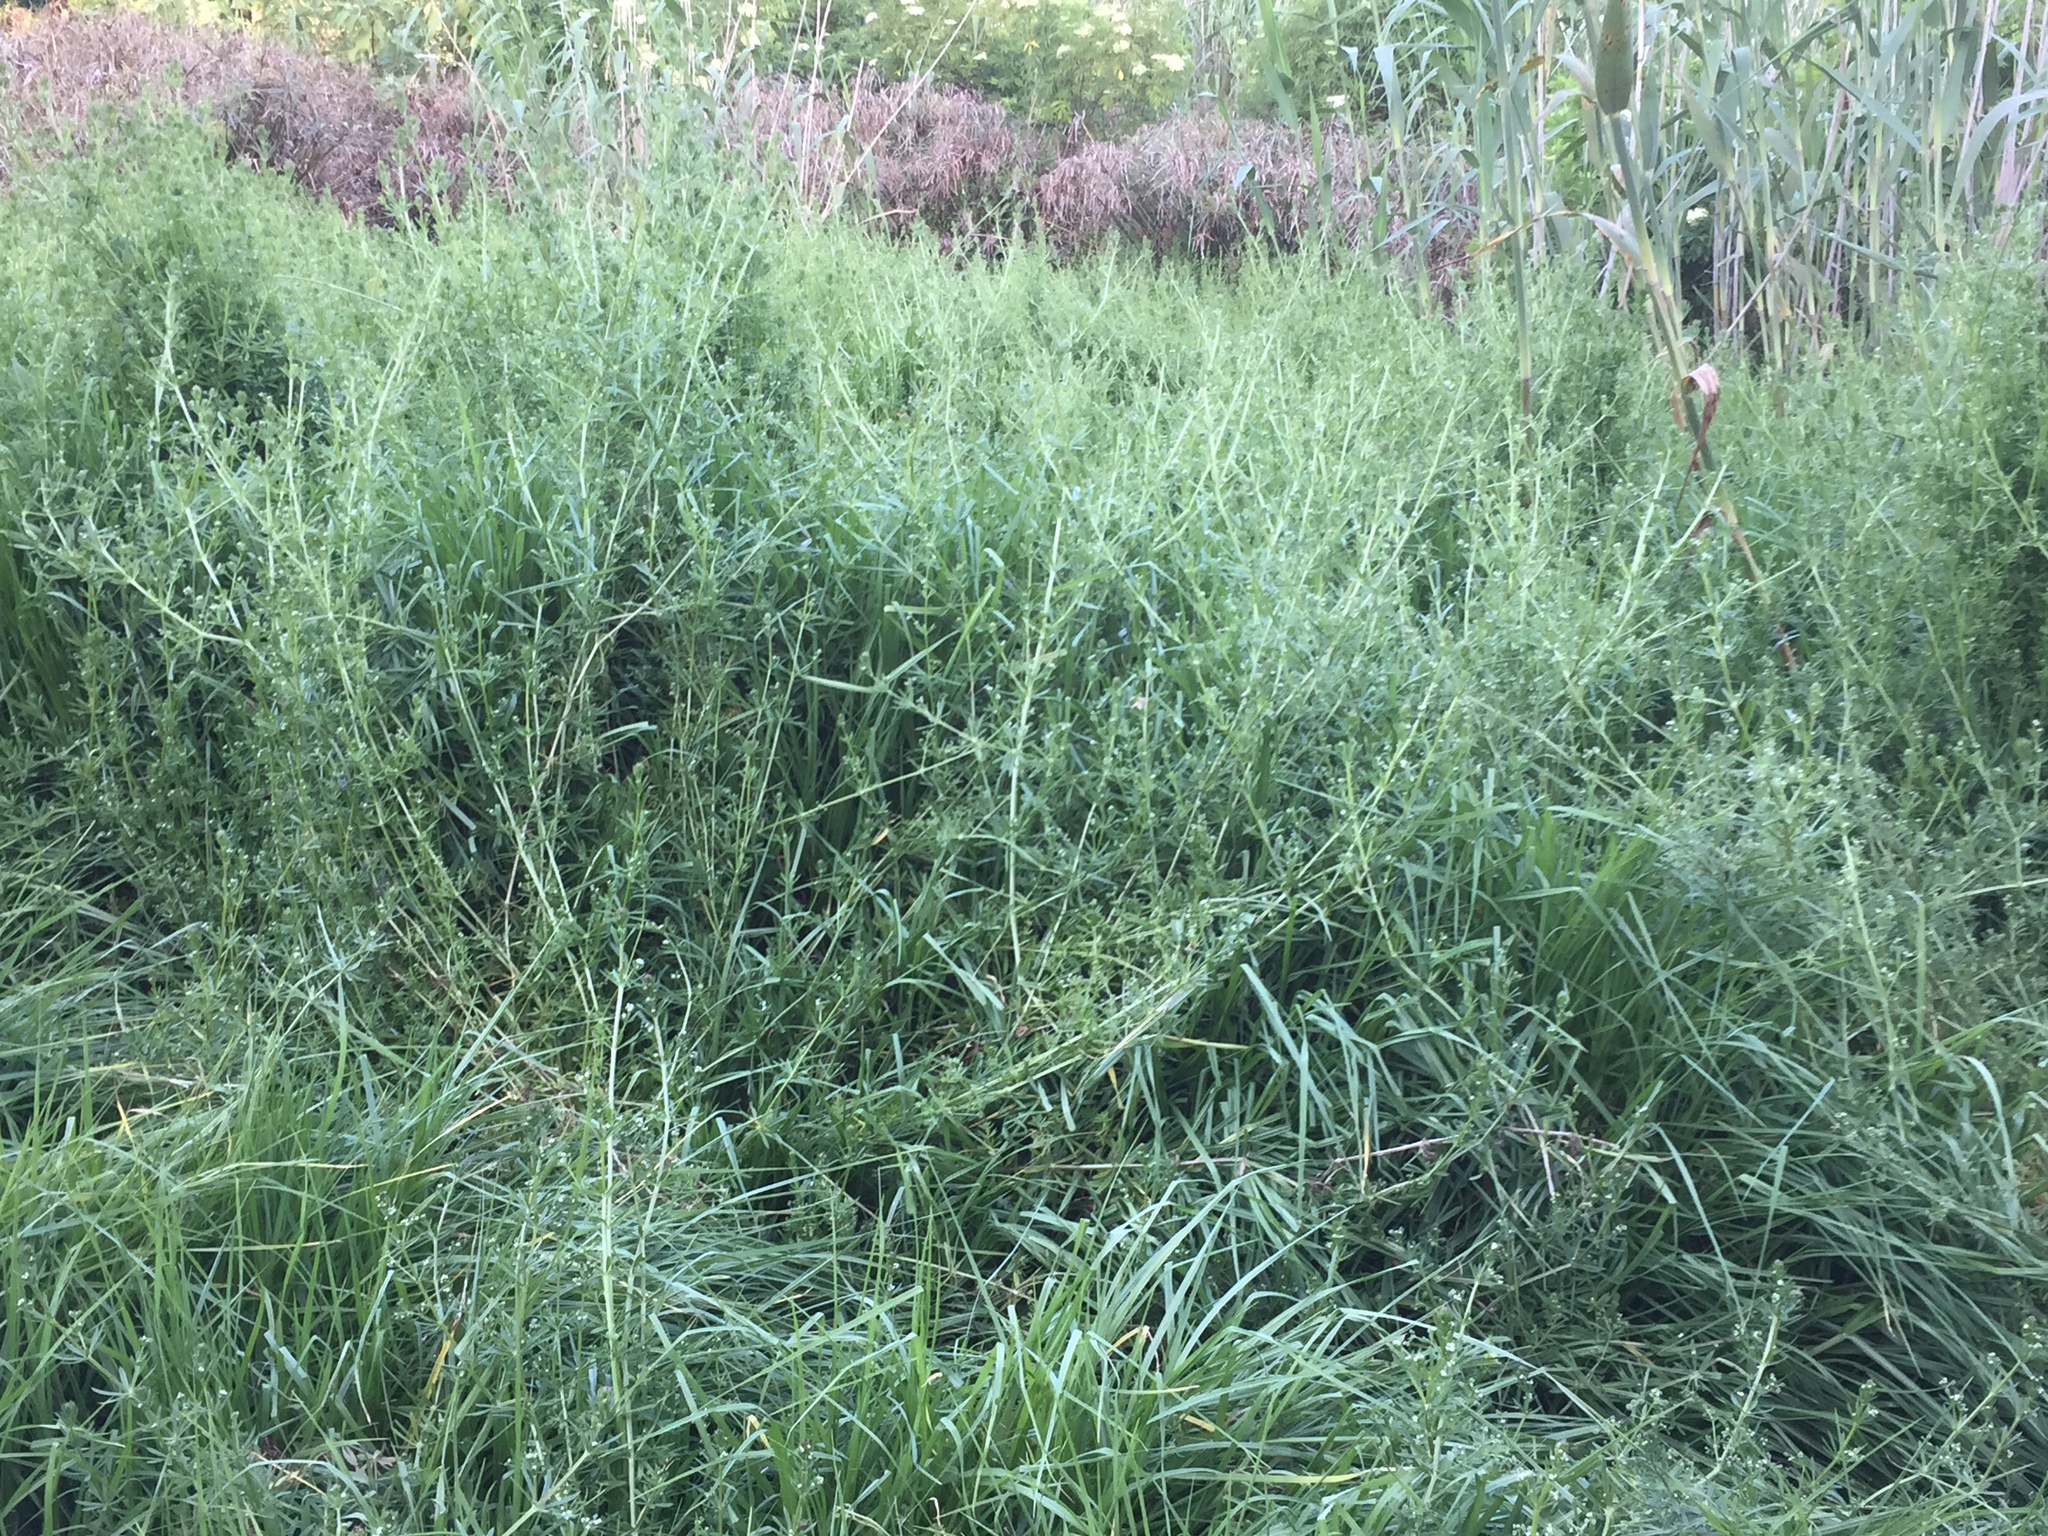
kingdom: Plantae
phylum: Tracheophyta
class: Magnoliopsida
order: Gentianales
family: Rubiaceae
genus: Galium
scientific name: Galium spurium
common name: False cleavers
